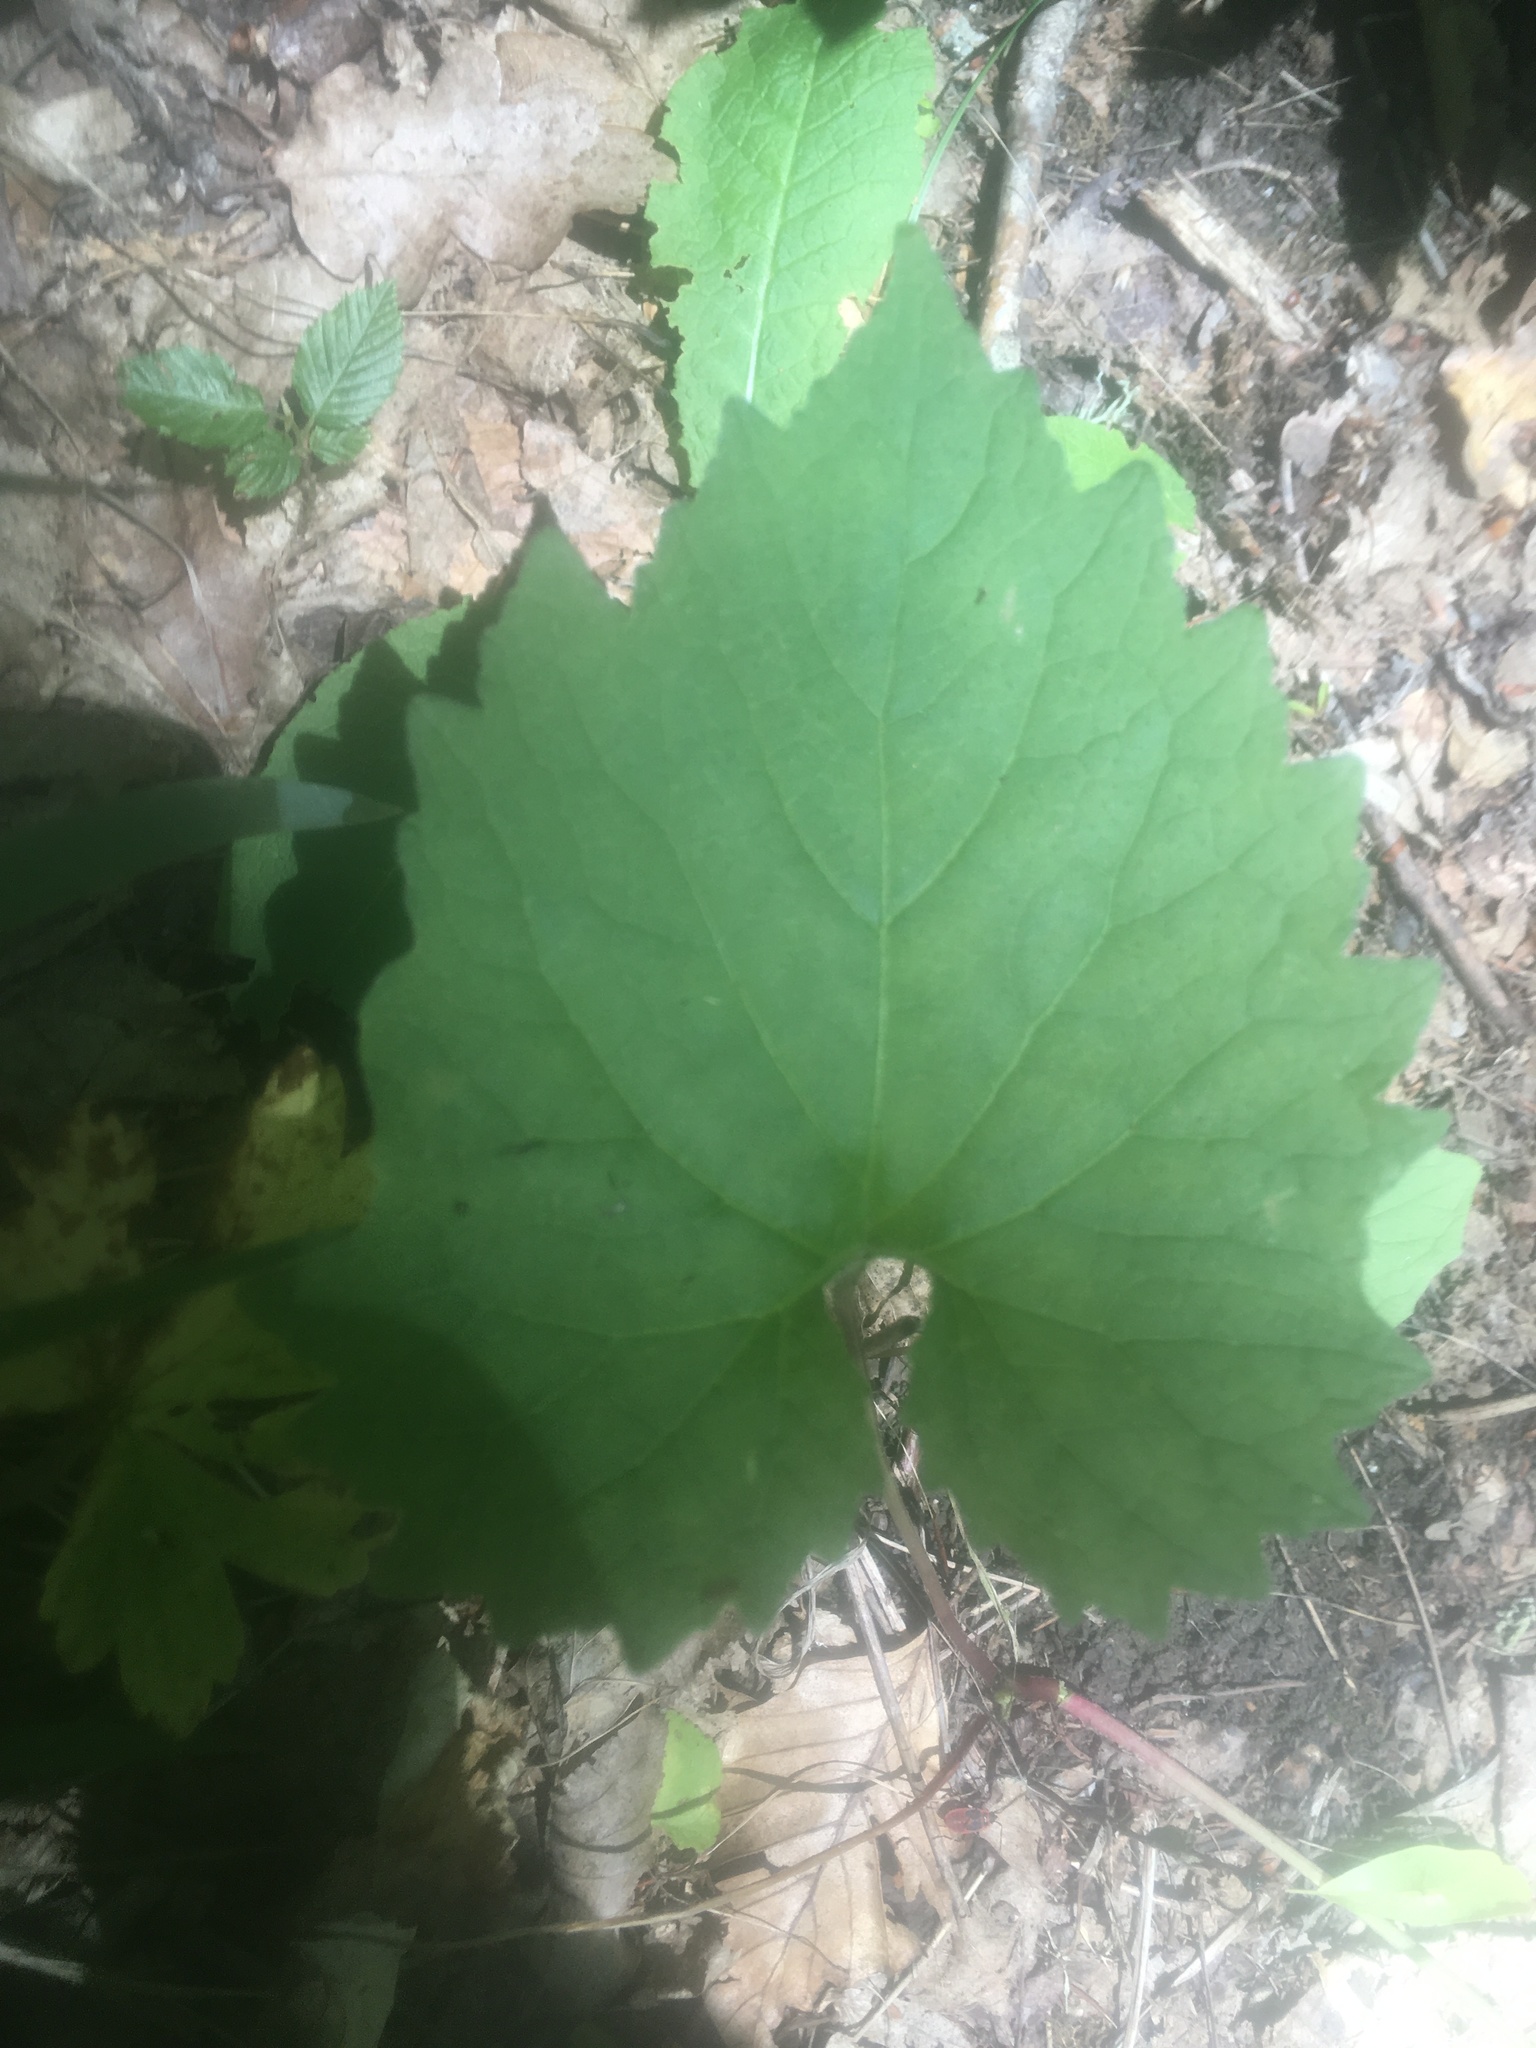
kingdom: Plantae
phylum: Tracheophyta
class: Magnoliopsida
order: Brassicales
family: Brassicaceae
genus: Alliaria
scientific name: Alliaria petiolata
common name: Garlic mustard
